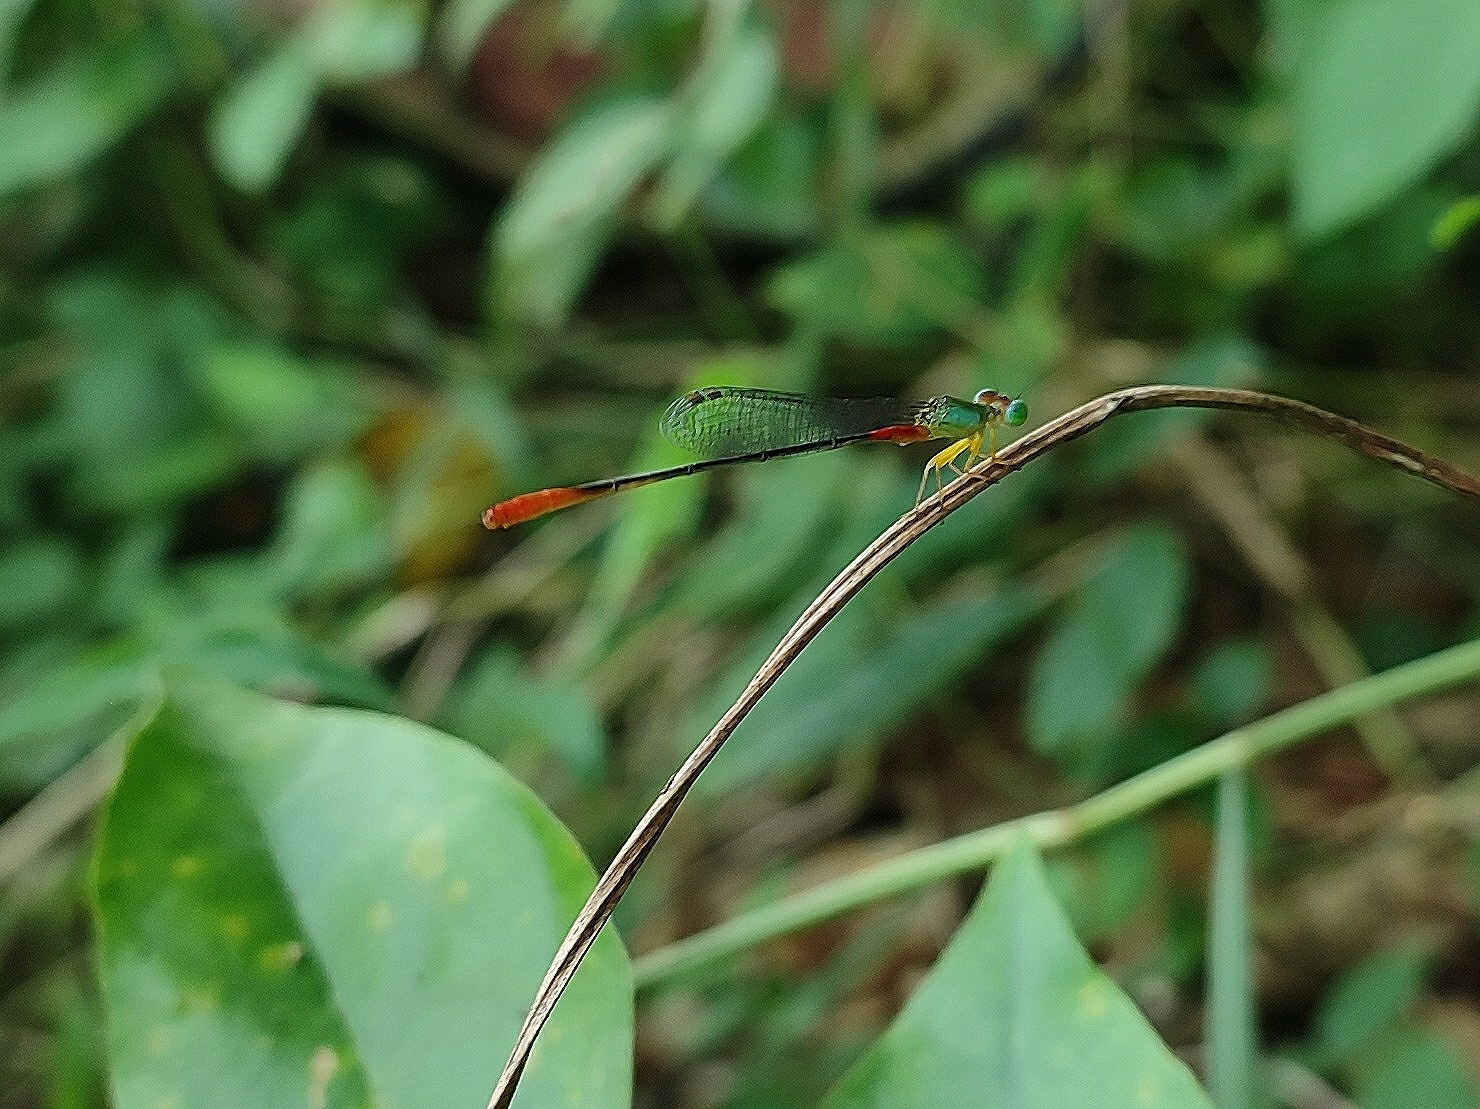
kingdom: Animalia
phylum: Arthropoda
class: Insecta
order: Odonata
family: Coenagrionidae
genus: Ceriagrion
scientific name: Ceriagrion cerinorubellum
